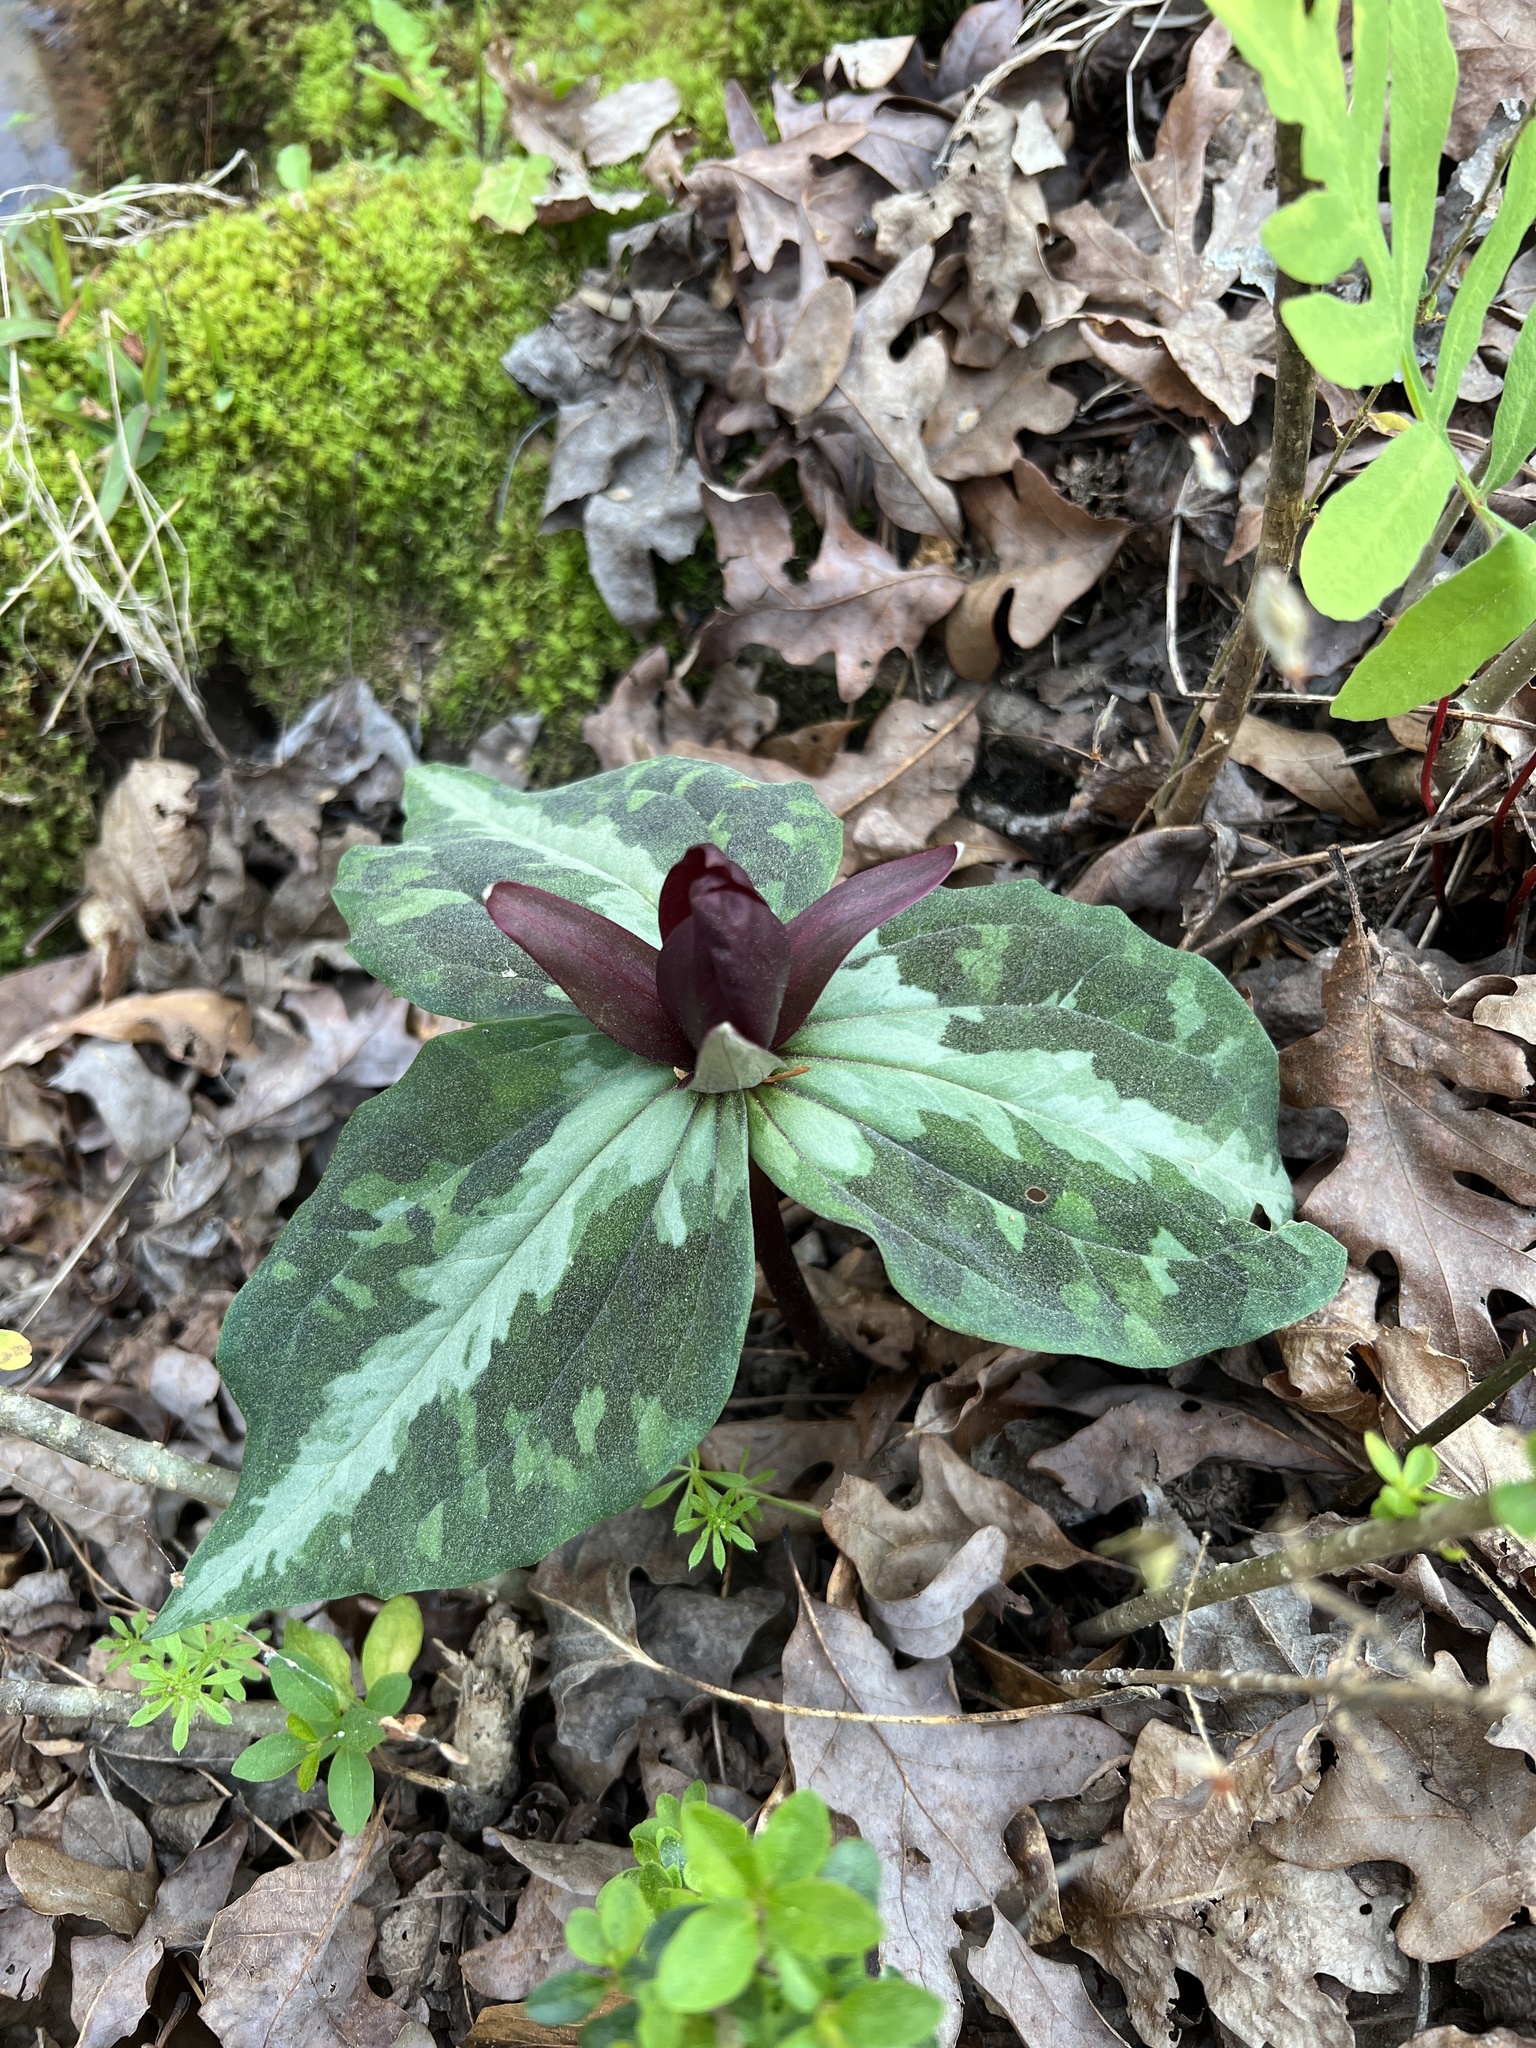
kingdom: Plantae
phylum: Tracheophyta
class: Liliopsida
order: Liliales
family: Melanthiaceae
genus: Trillium
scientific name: Trillium underwoodii
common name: Longbract wakerobin
